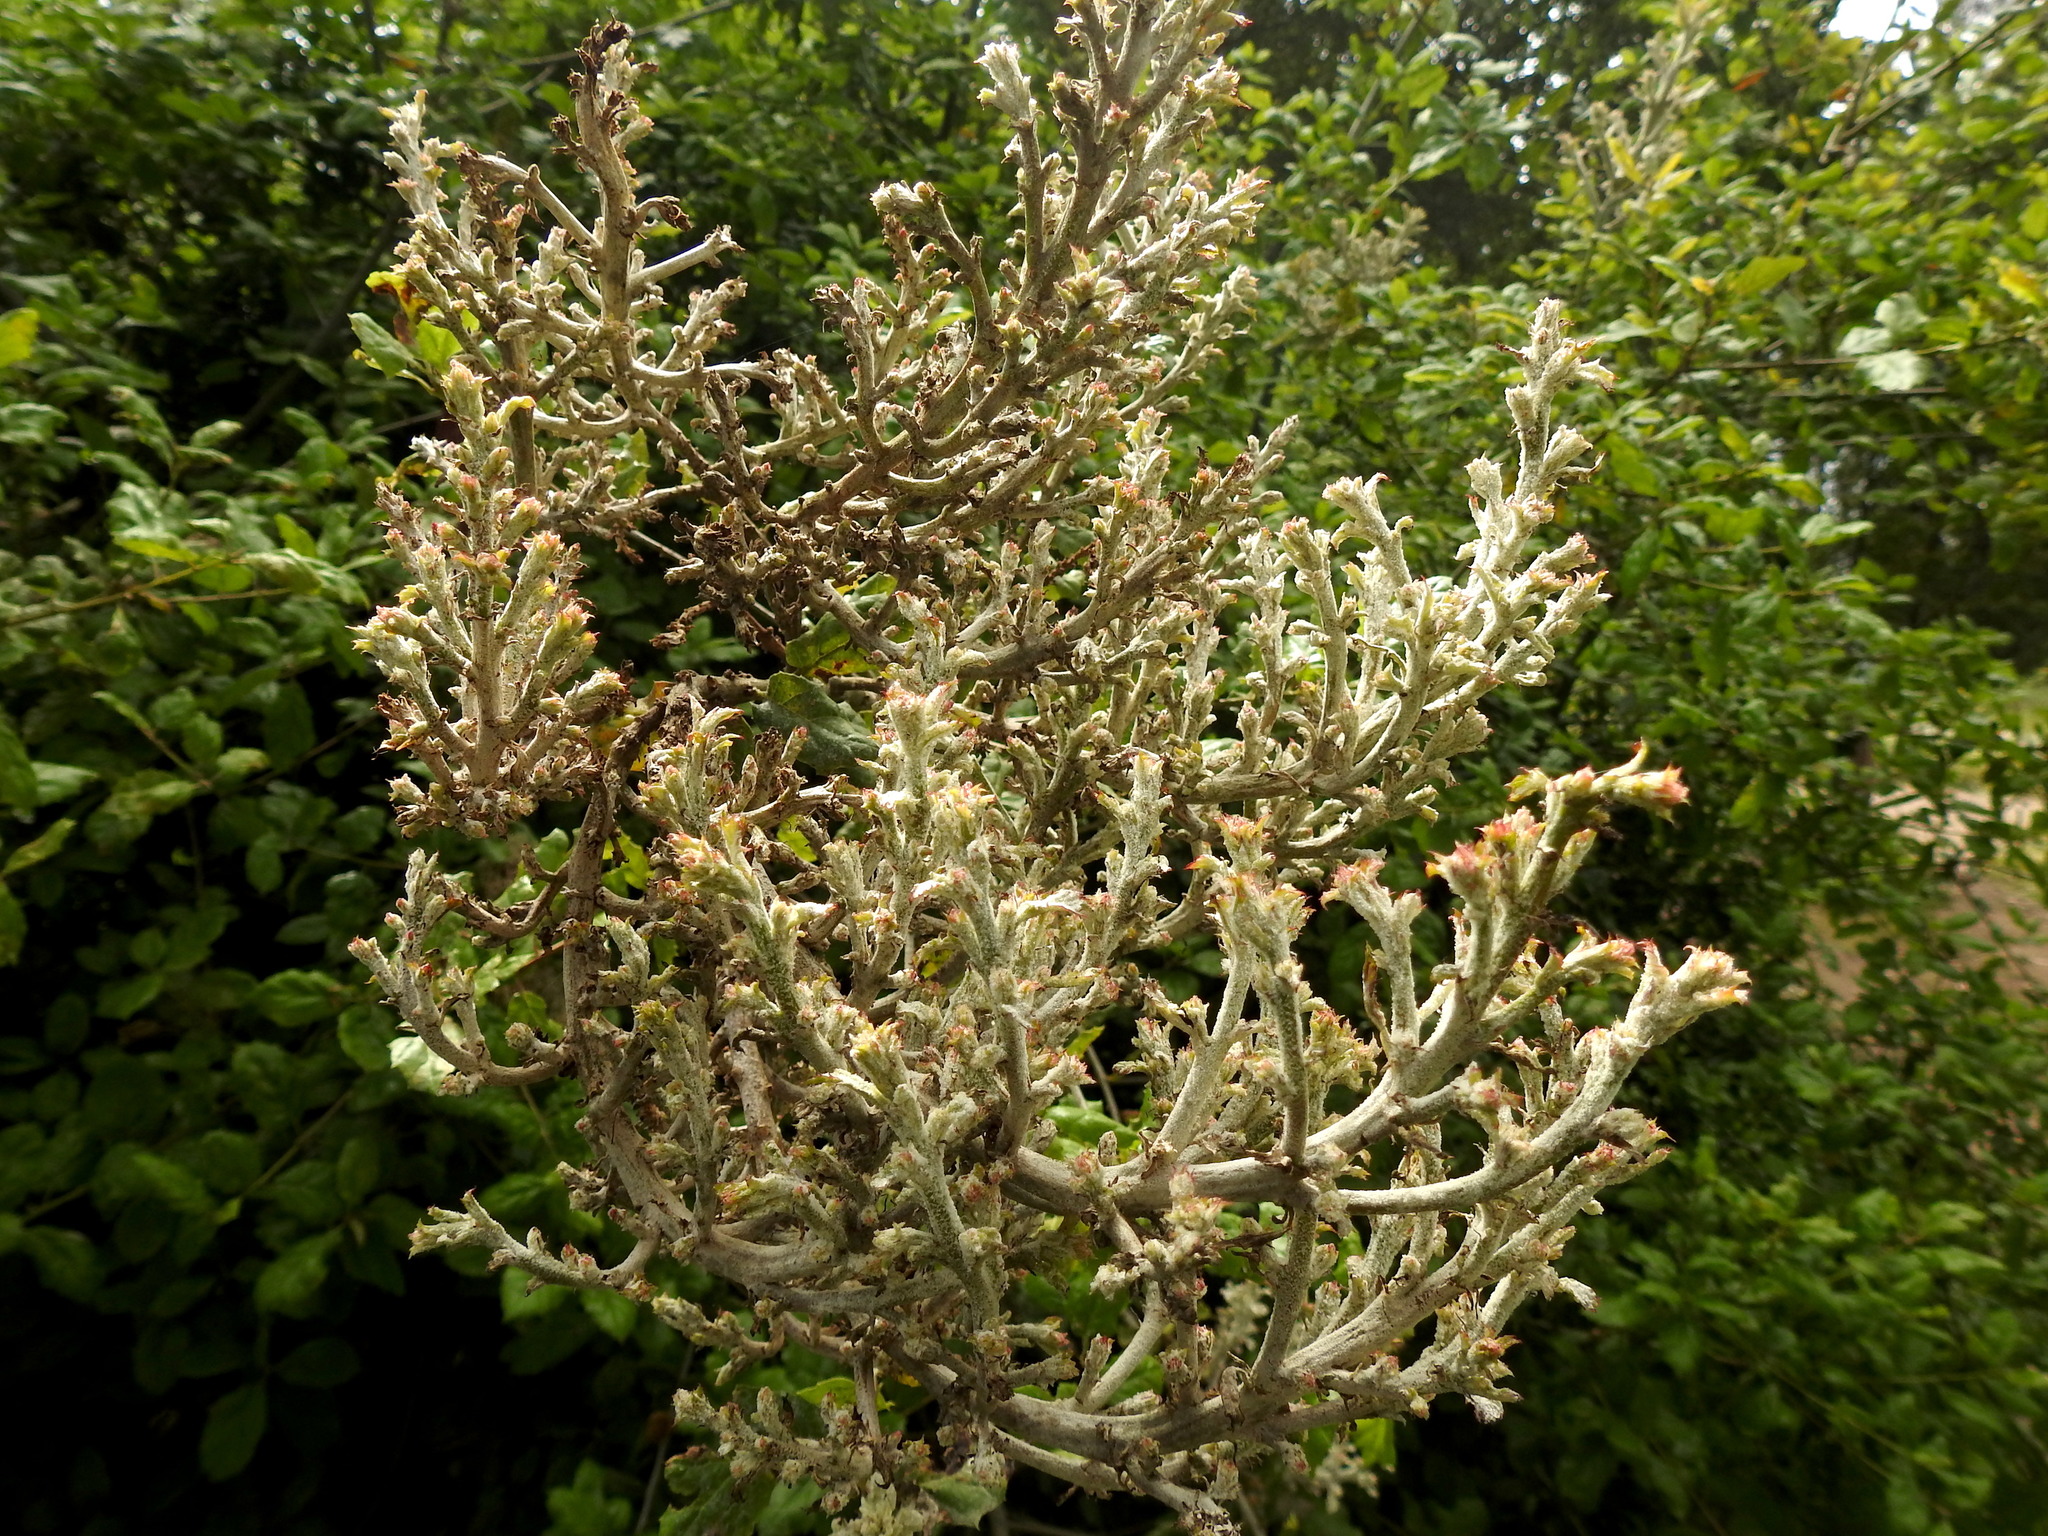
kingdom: Fungi
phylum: Ascomycota
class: Leotiomycetes
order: Helotiales
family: Erysiphaceae
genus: Cystotheca
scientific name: Cystotheca lanestris
